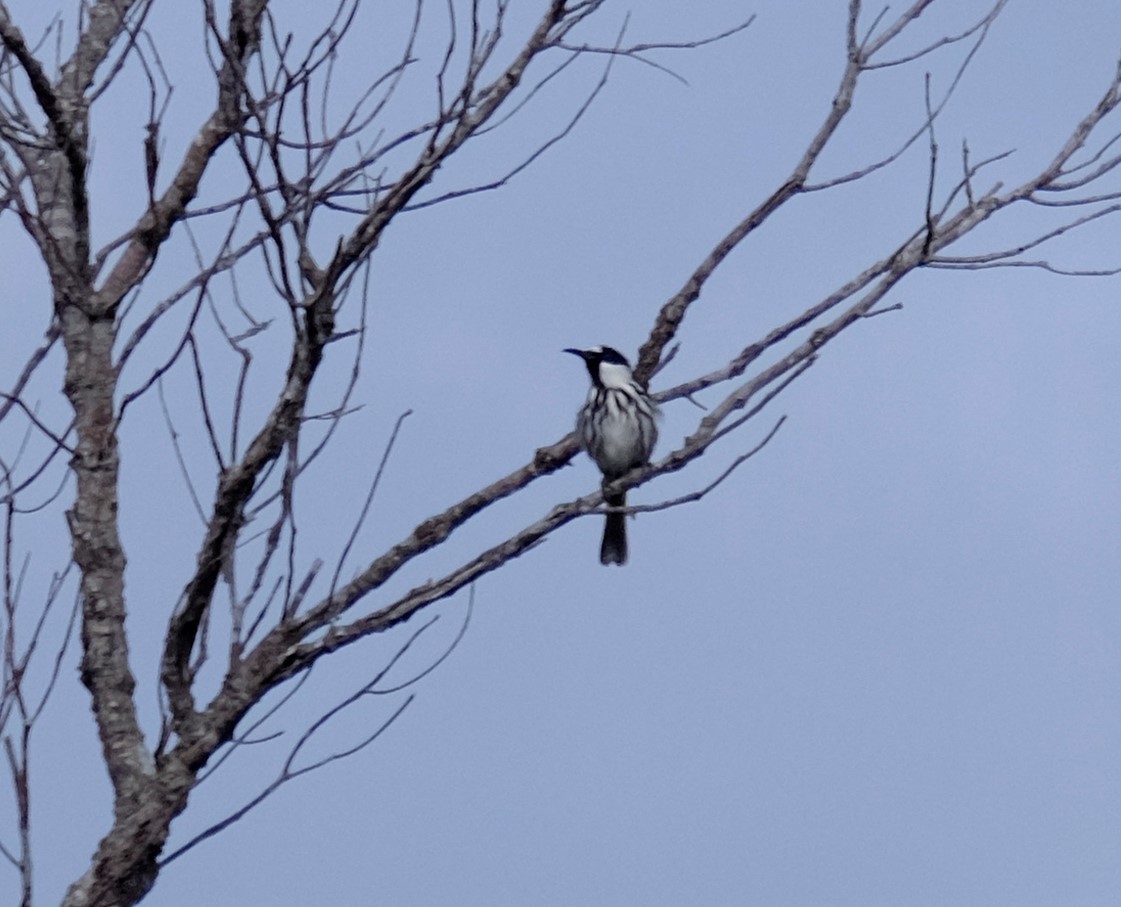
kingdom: Animalia
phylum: Chordata
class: Aves
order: Passeriformes
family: Meliphagidae
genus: Phylidonyris
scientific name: Phylidonyris niger
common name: White-cheeked honeyeater
